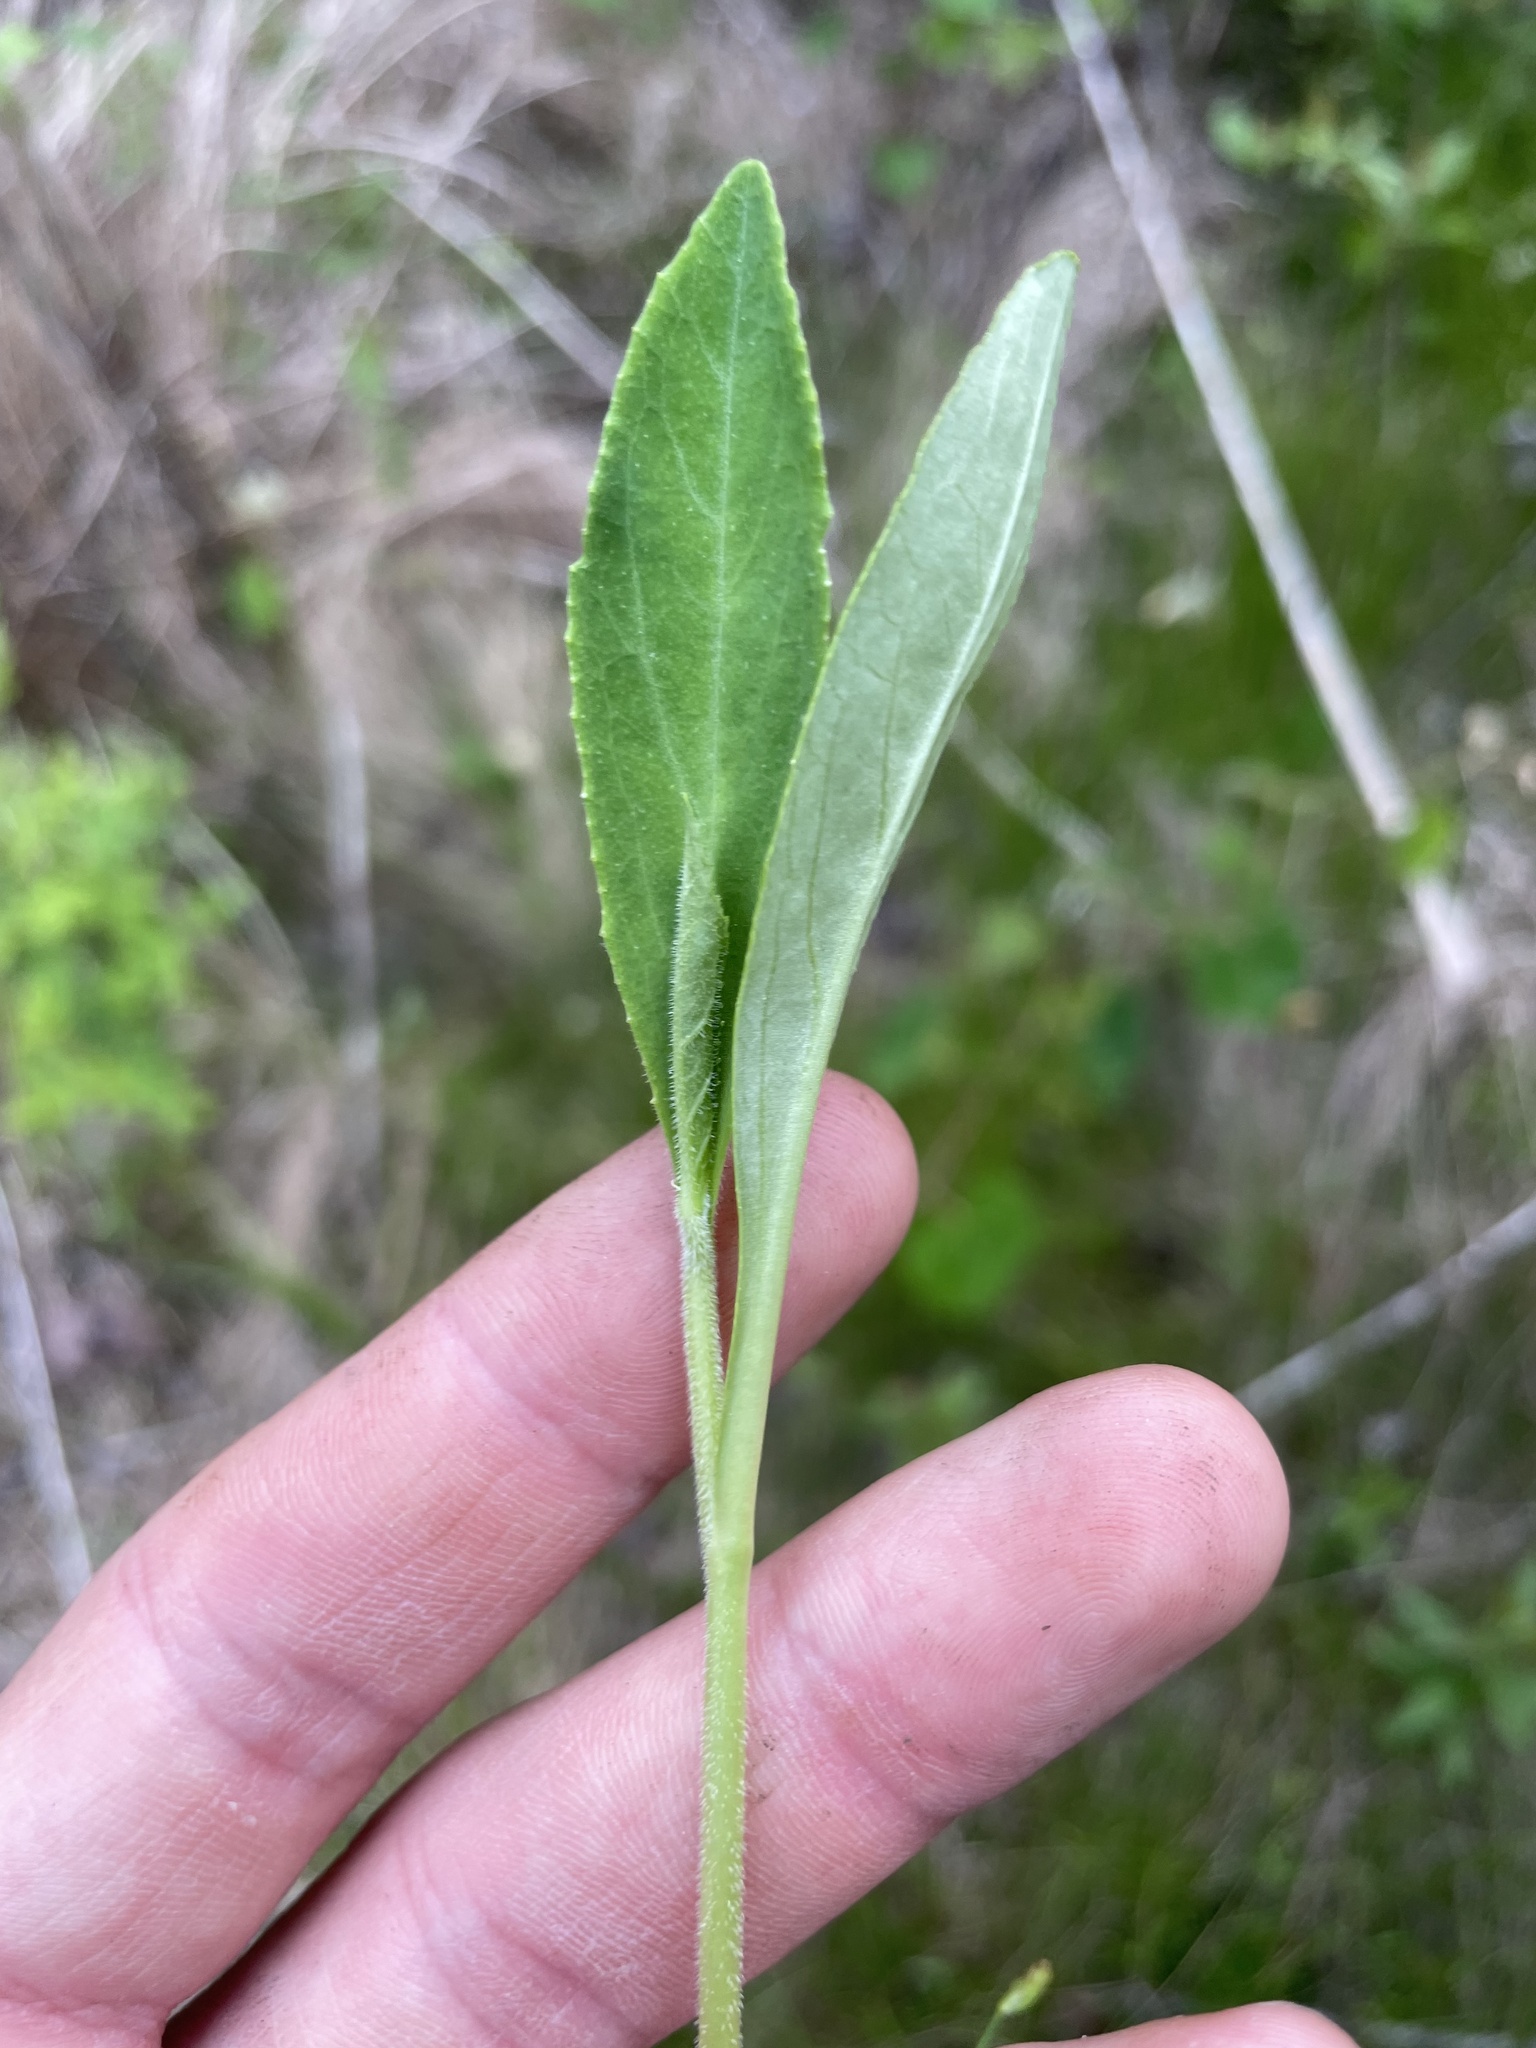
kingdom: Plantae
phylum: Tracheophyta
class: Magnoliopsida
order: Asterales
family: Campanulaceae
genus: Lobelia
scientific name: Lobelia puberula
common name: Purple dewdrop
